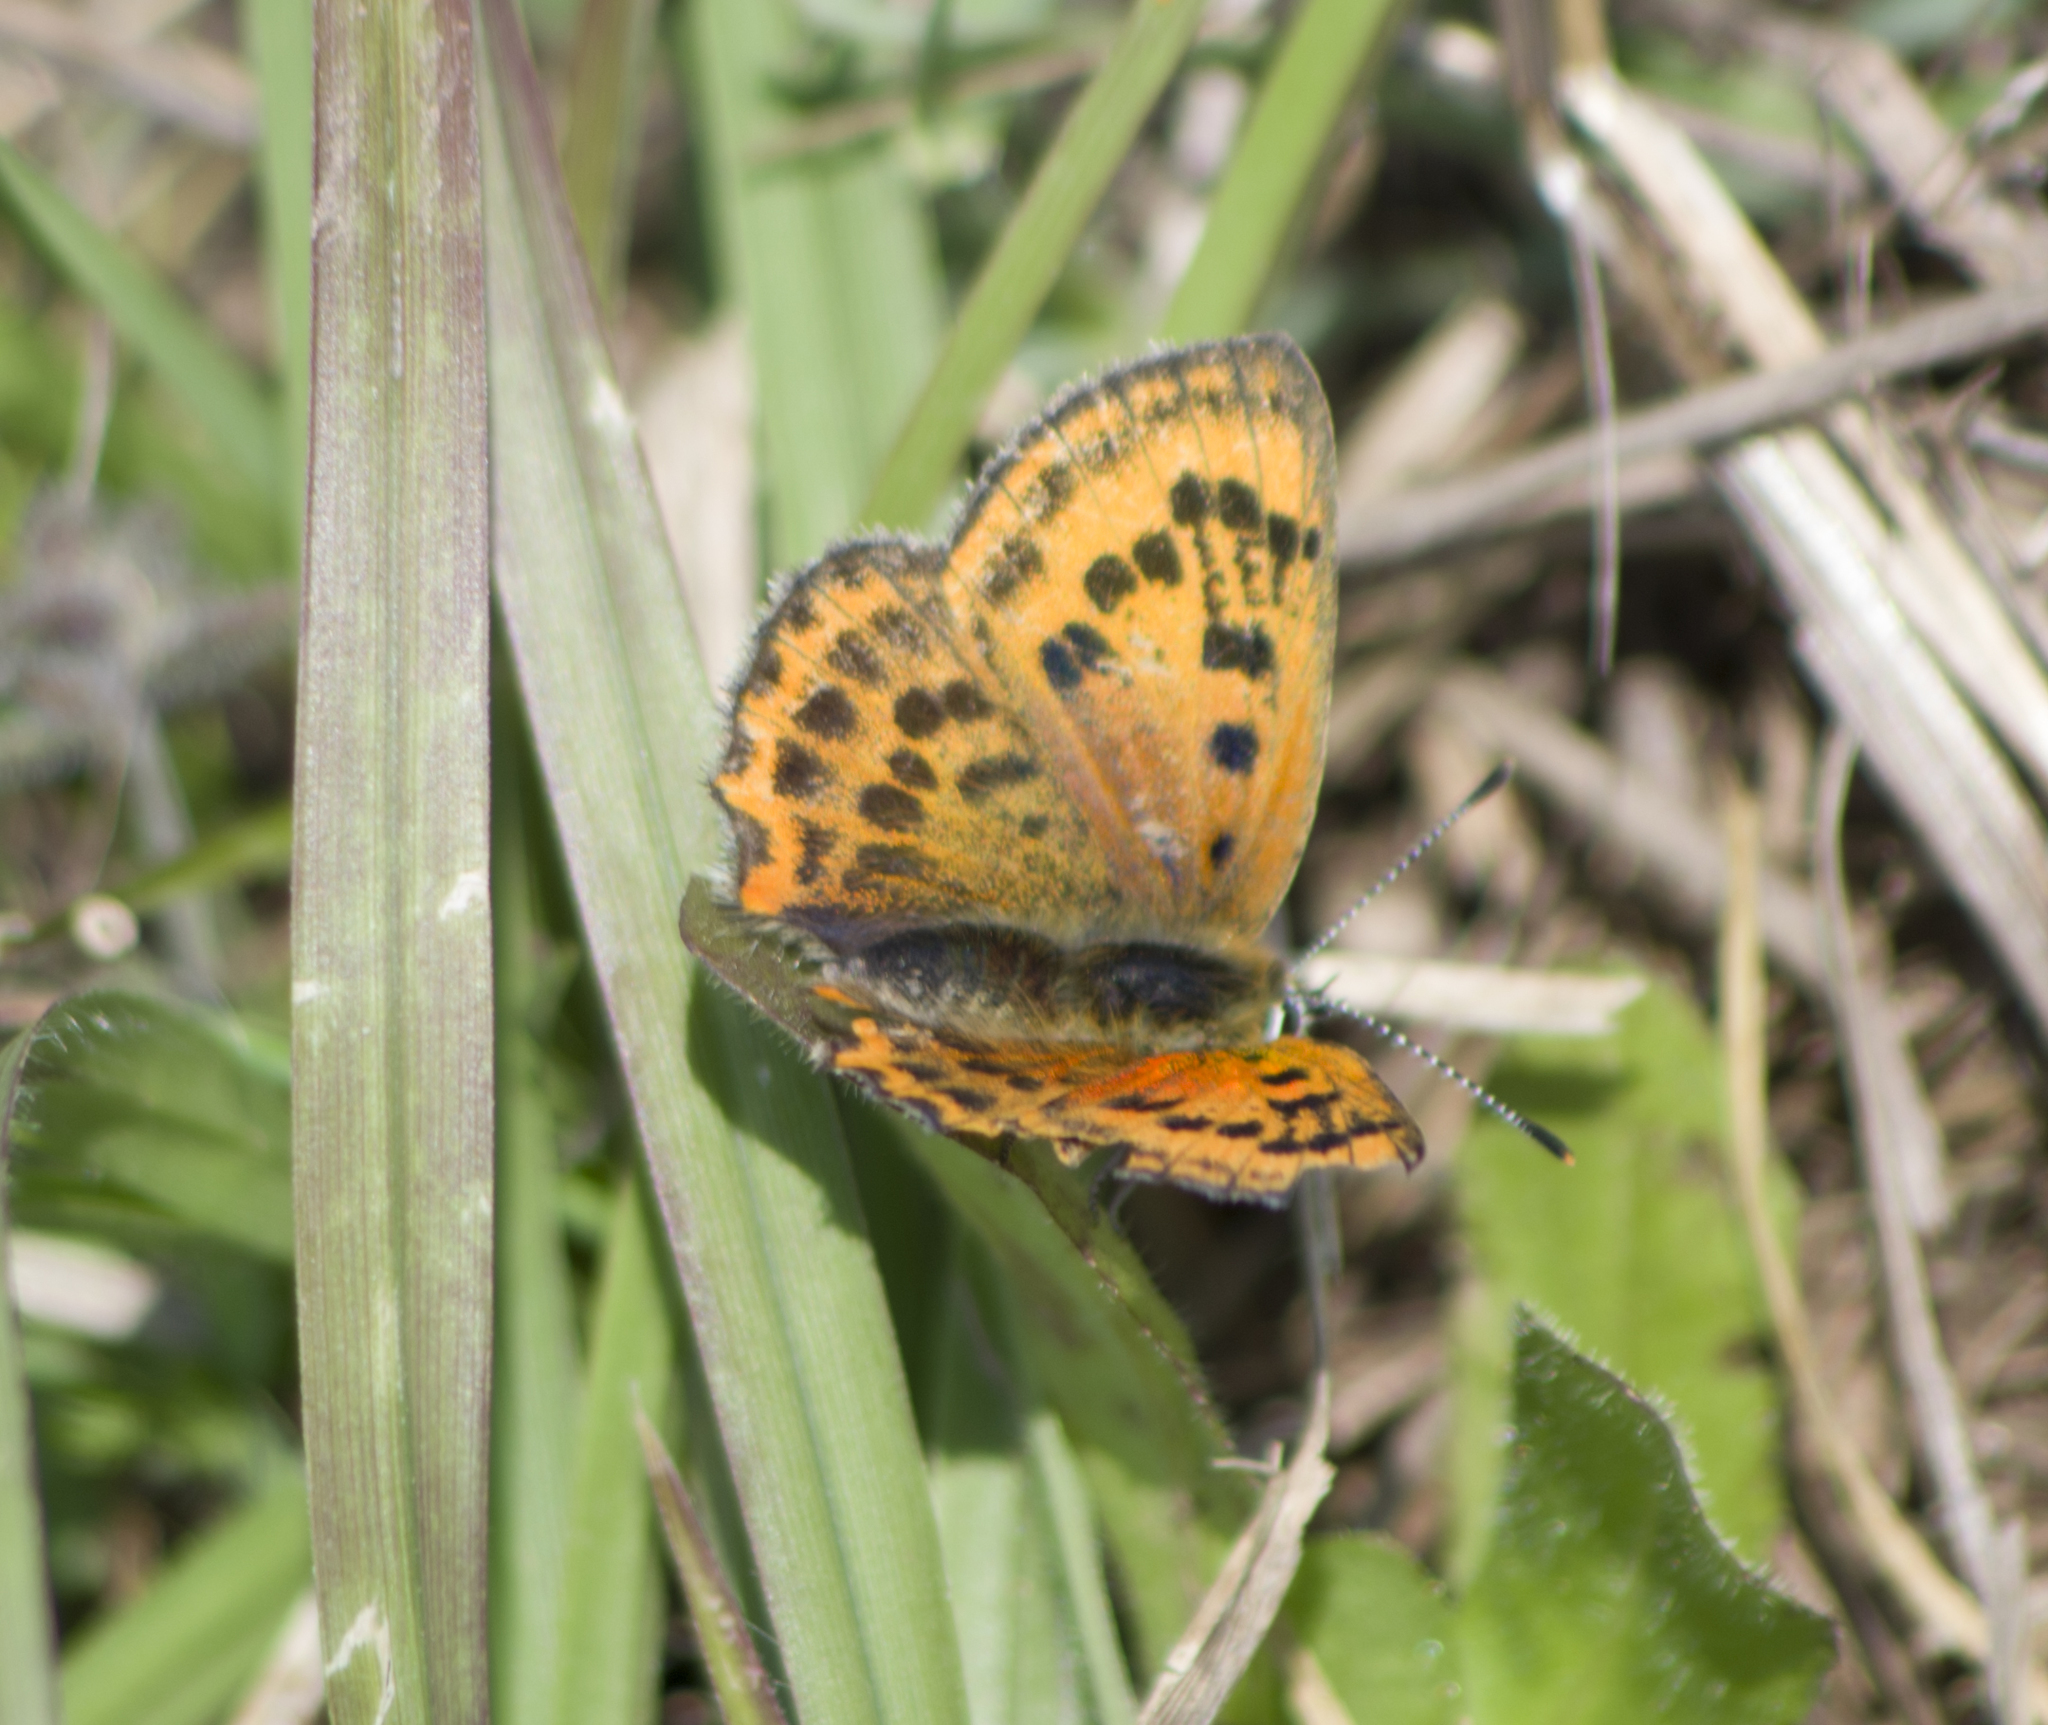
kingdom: Animalia
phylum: Arthropoda
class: Insecta
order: Lepidoptera
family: Lycaenidae
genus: Polyommatus
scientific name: Polyommatus ottomanus
